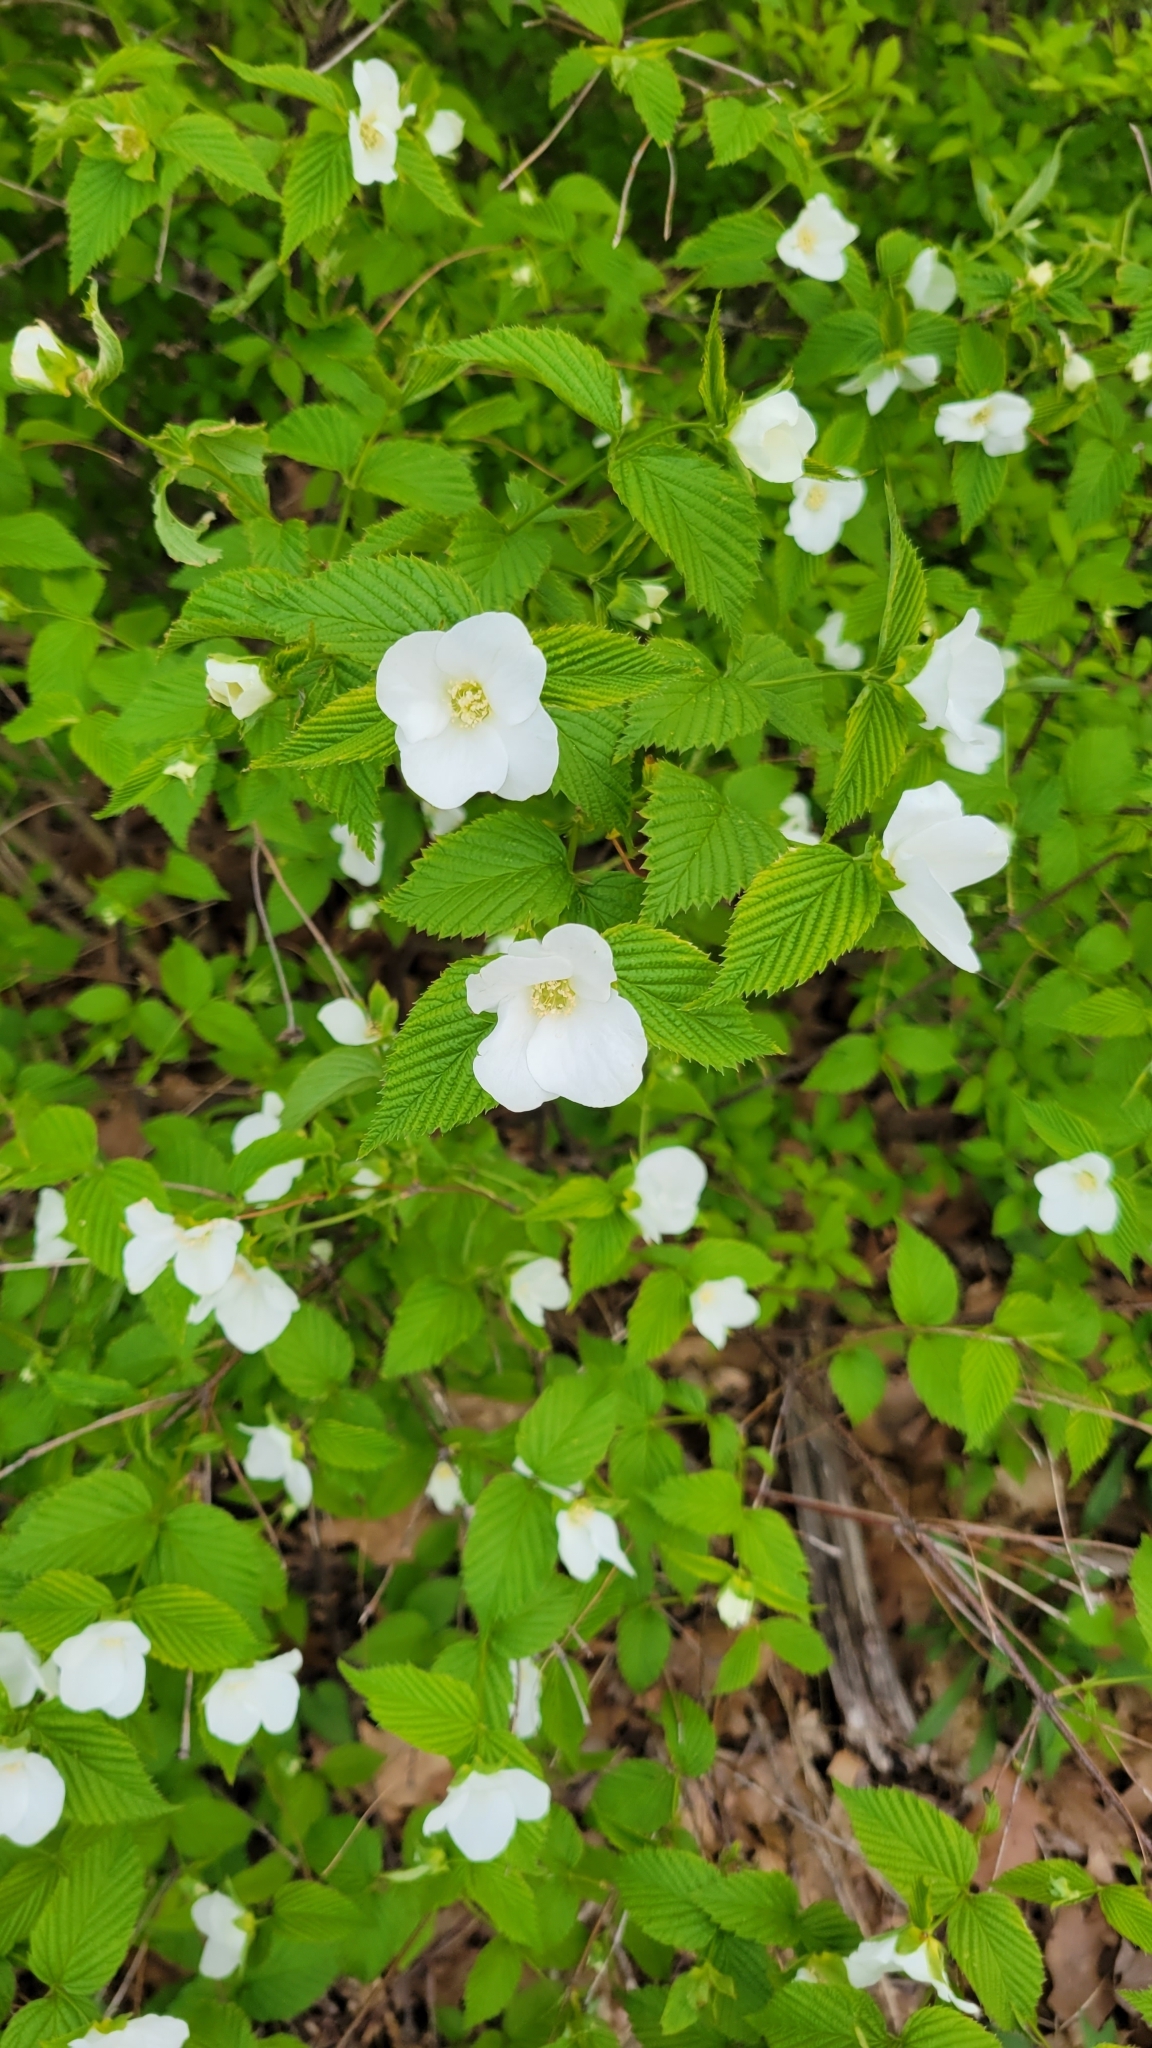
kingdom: Plantae
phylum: Tracheophyta
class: Magnoliopsida
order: Rosales
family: Rosaceae
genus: Rhodotypos
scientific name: Rhodotypos scandens
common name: Jetbead
